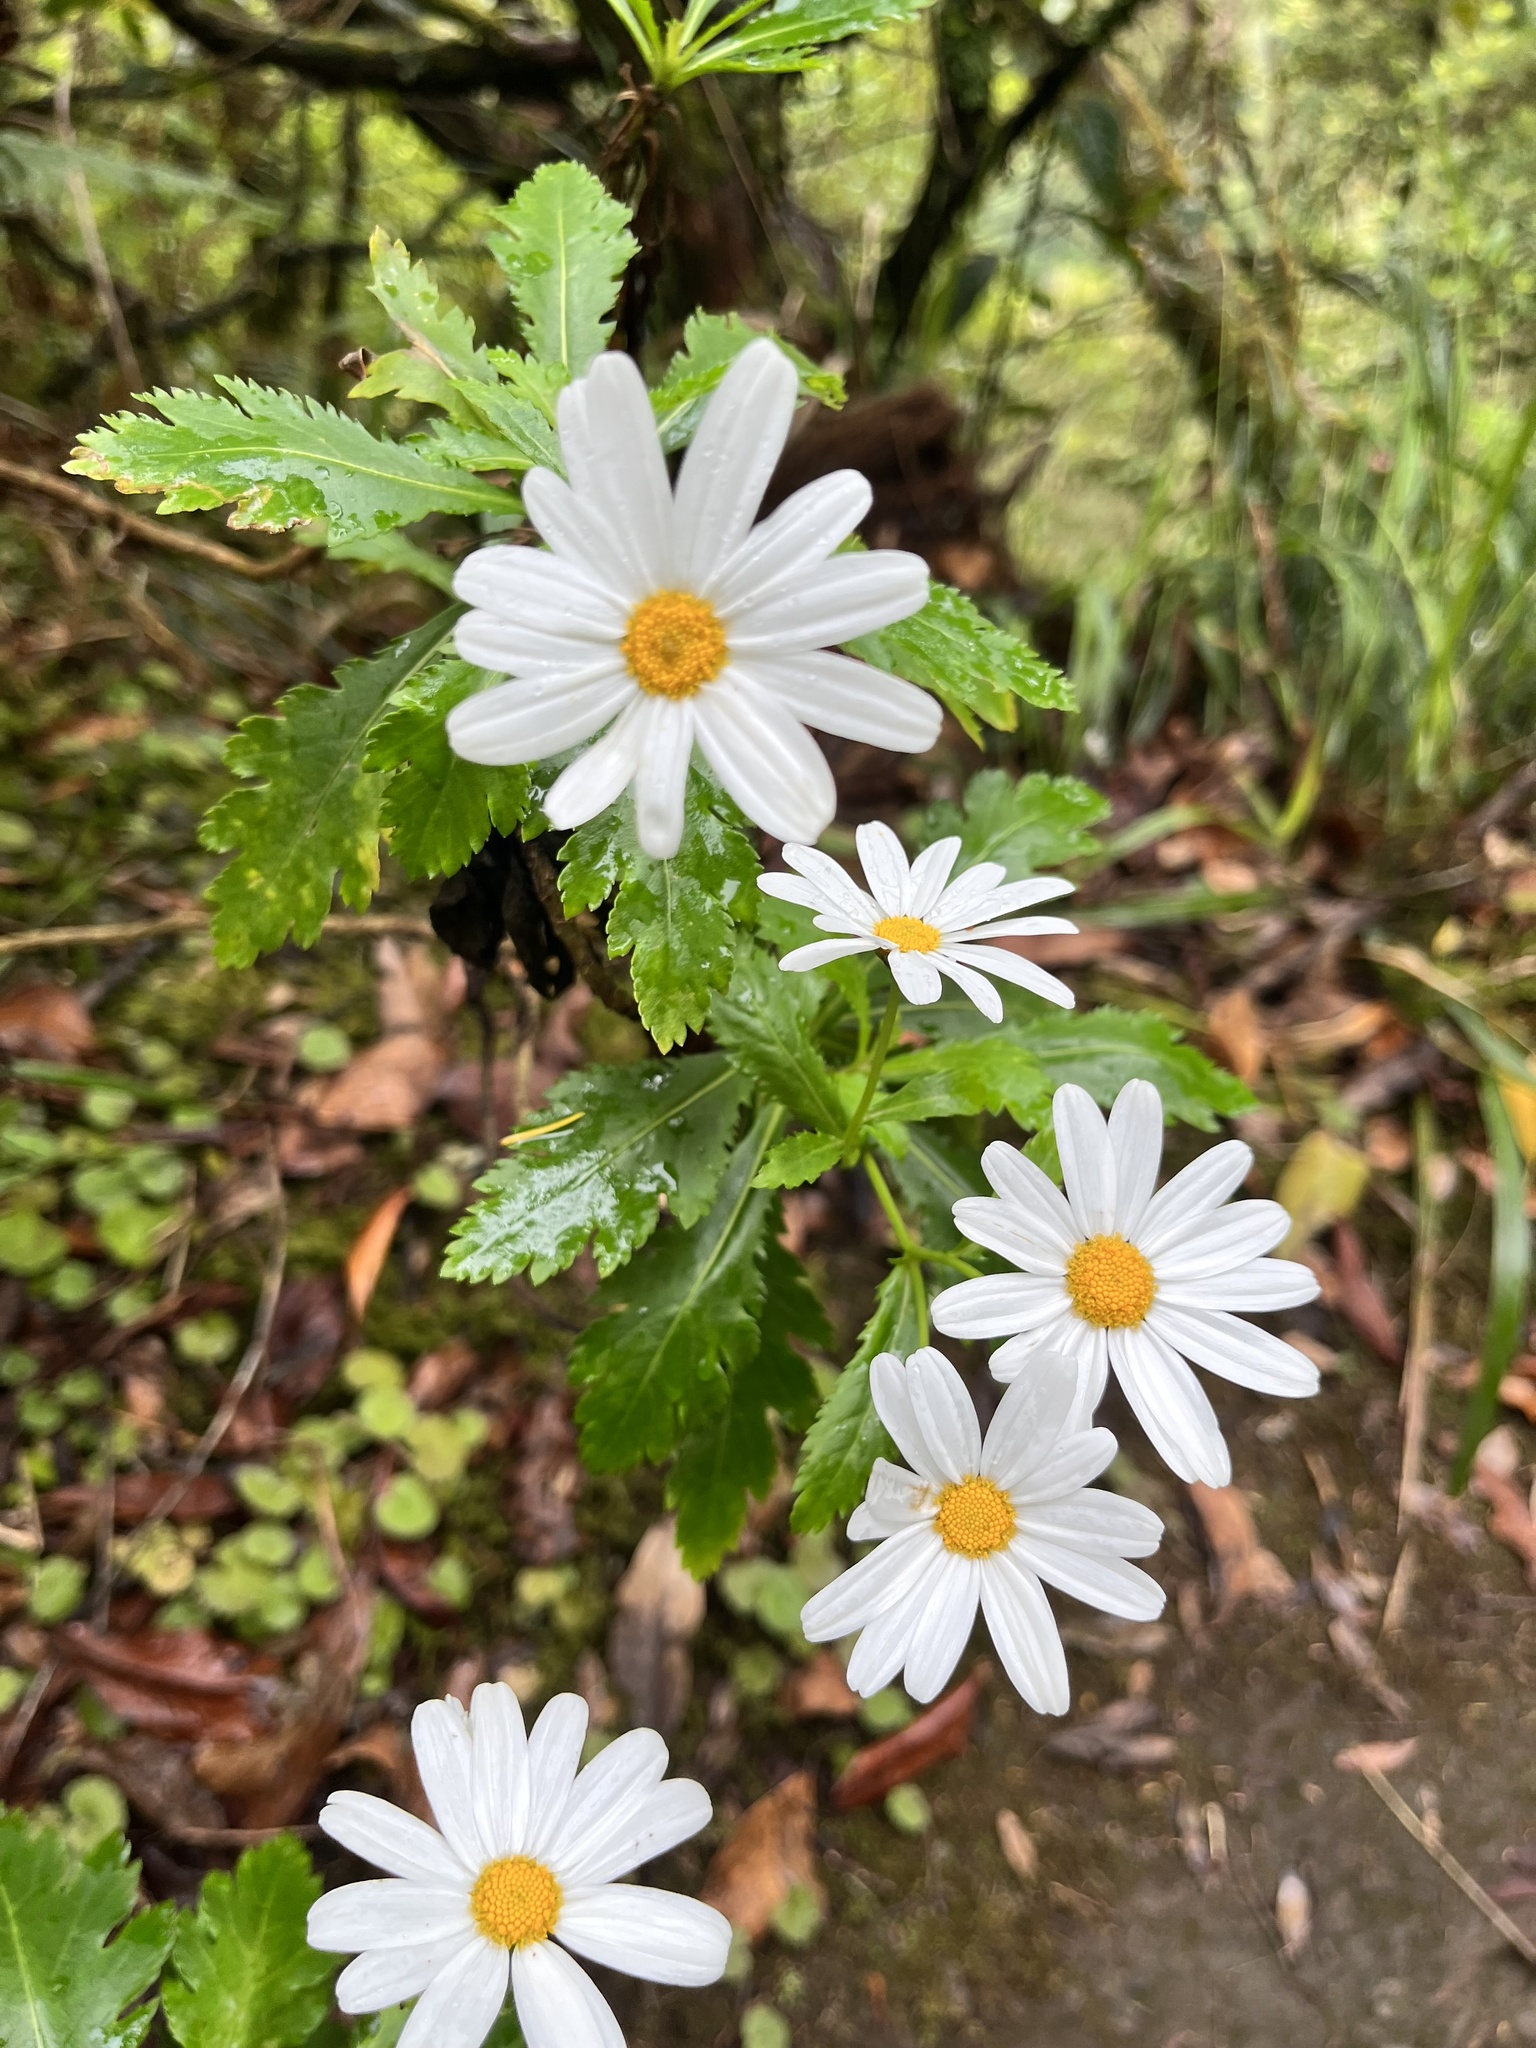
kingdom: Plantae
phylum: Tracheophyta
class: Magnoliopsida
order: Asterales
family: Asteraceae
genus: Argyranthemum
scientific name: Argyranthemum pinnatifidum
